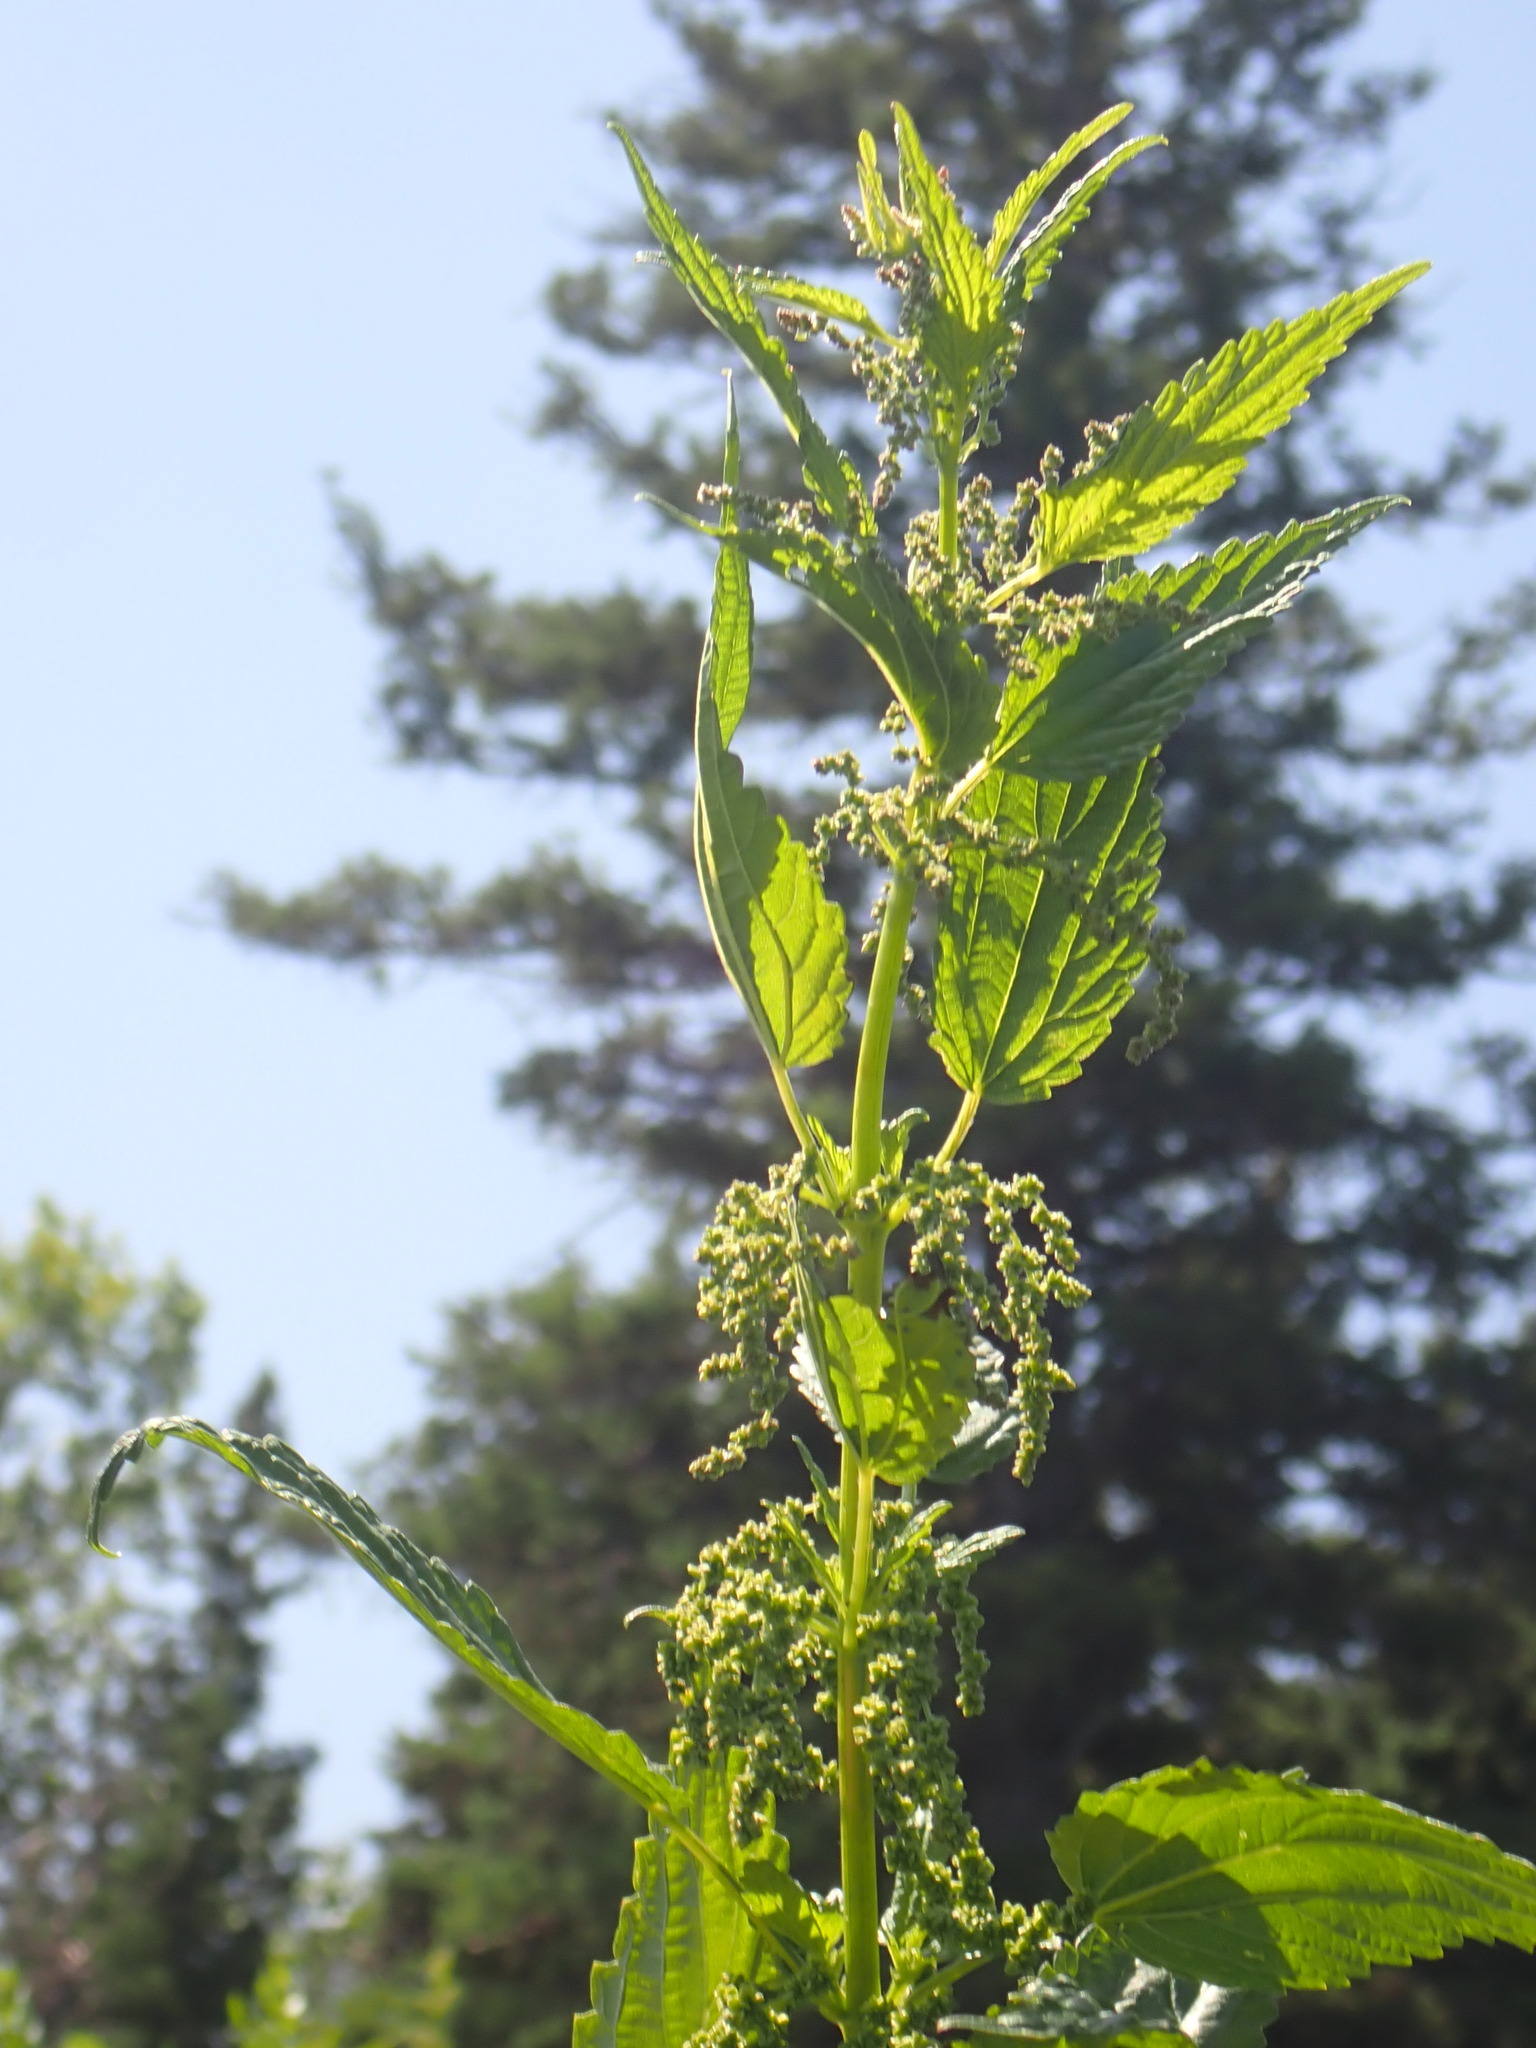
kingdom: Plantae
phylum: Tracheophyta
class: Magnoliopsida
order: Rosales
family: Urticaceae
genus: Urtica
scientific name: Urtica gracilis
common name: Slender stinging nettle
